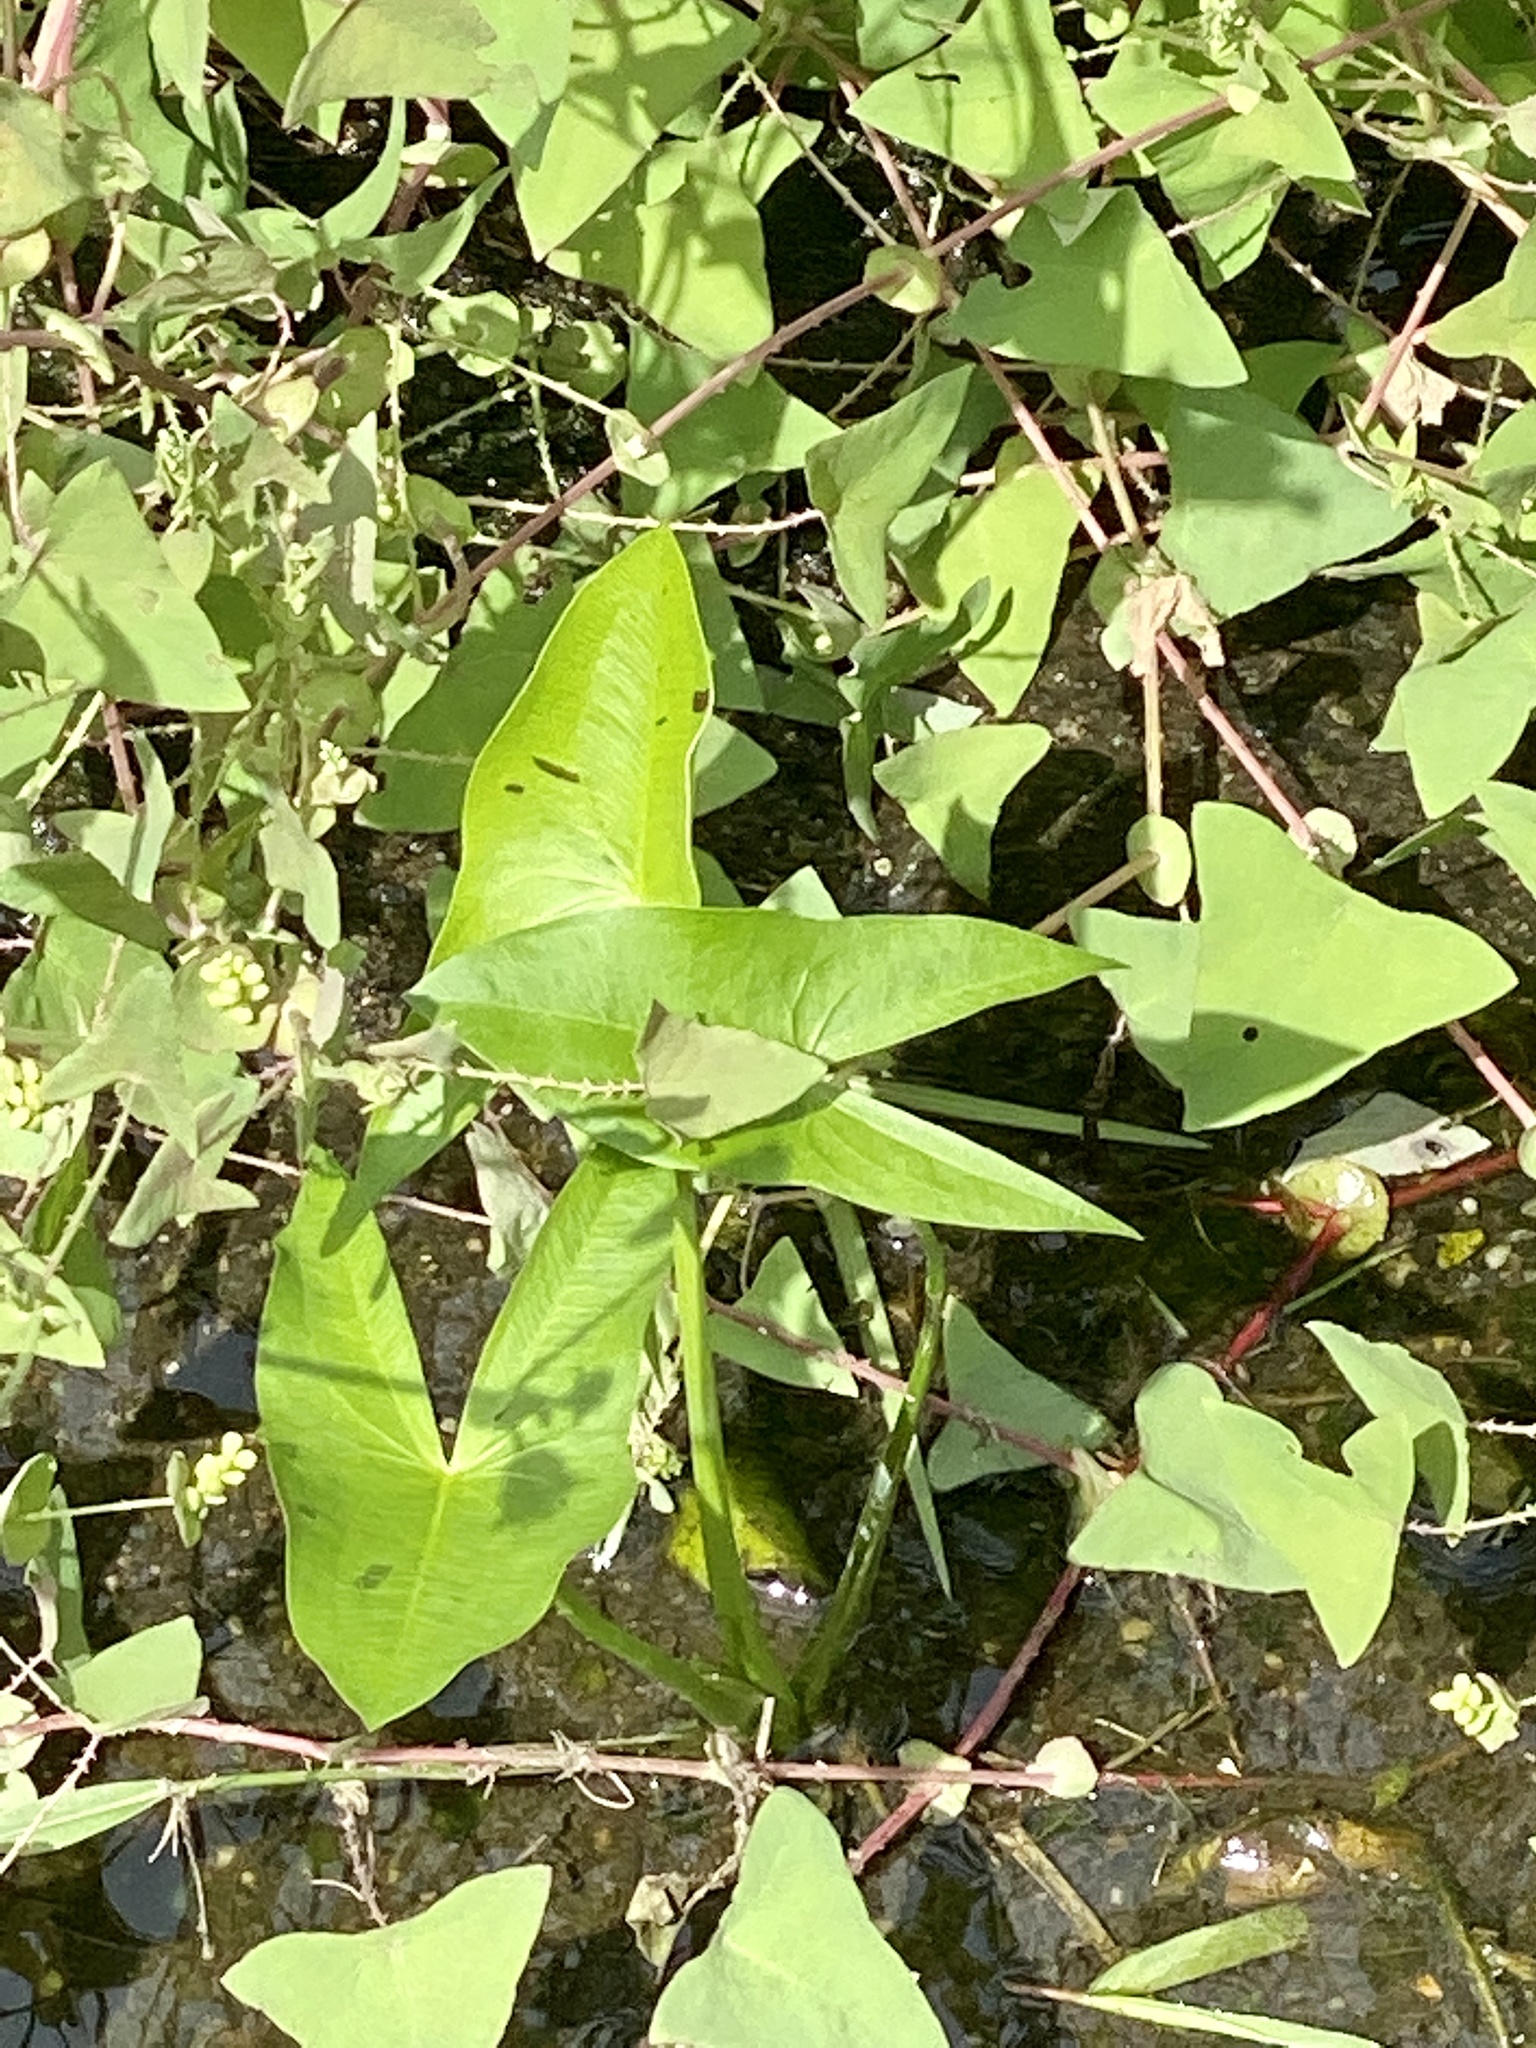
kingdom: Plantae
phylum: Tracheophyta
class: Liliopsida
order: Alismatales
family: Alismataceae
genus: Sagittaria
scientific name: Sagittaria latifolia
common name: Duck-potato
